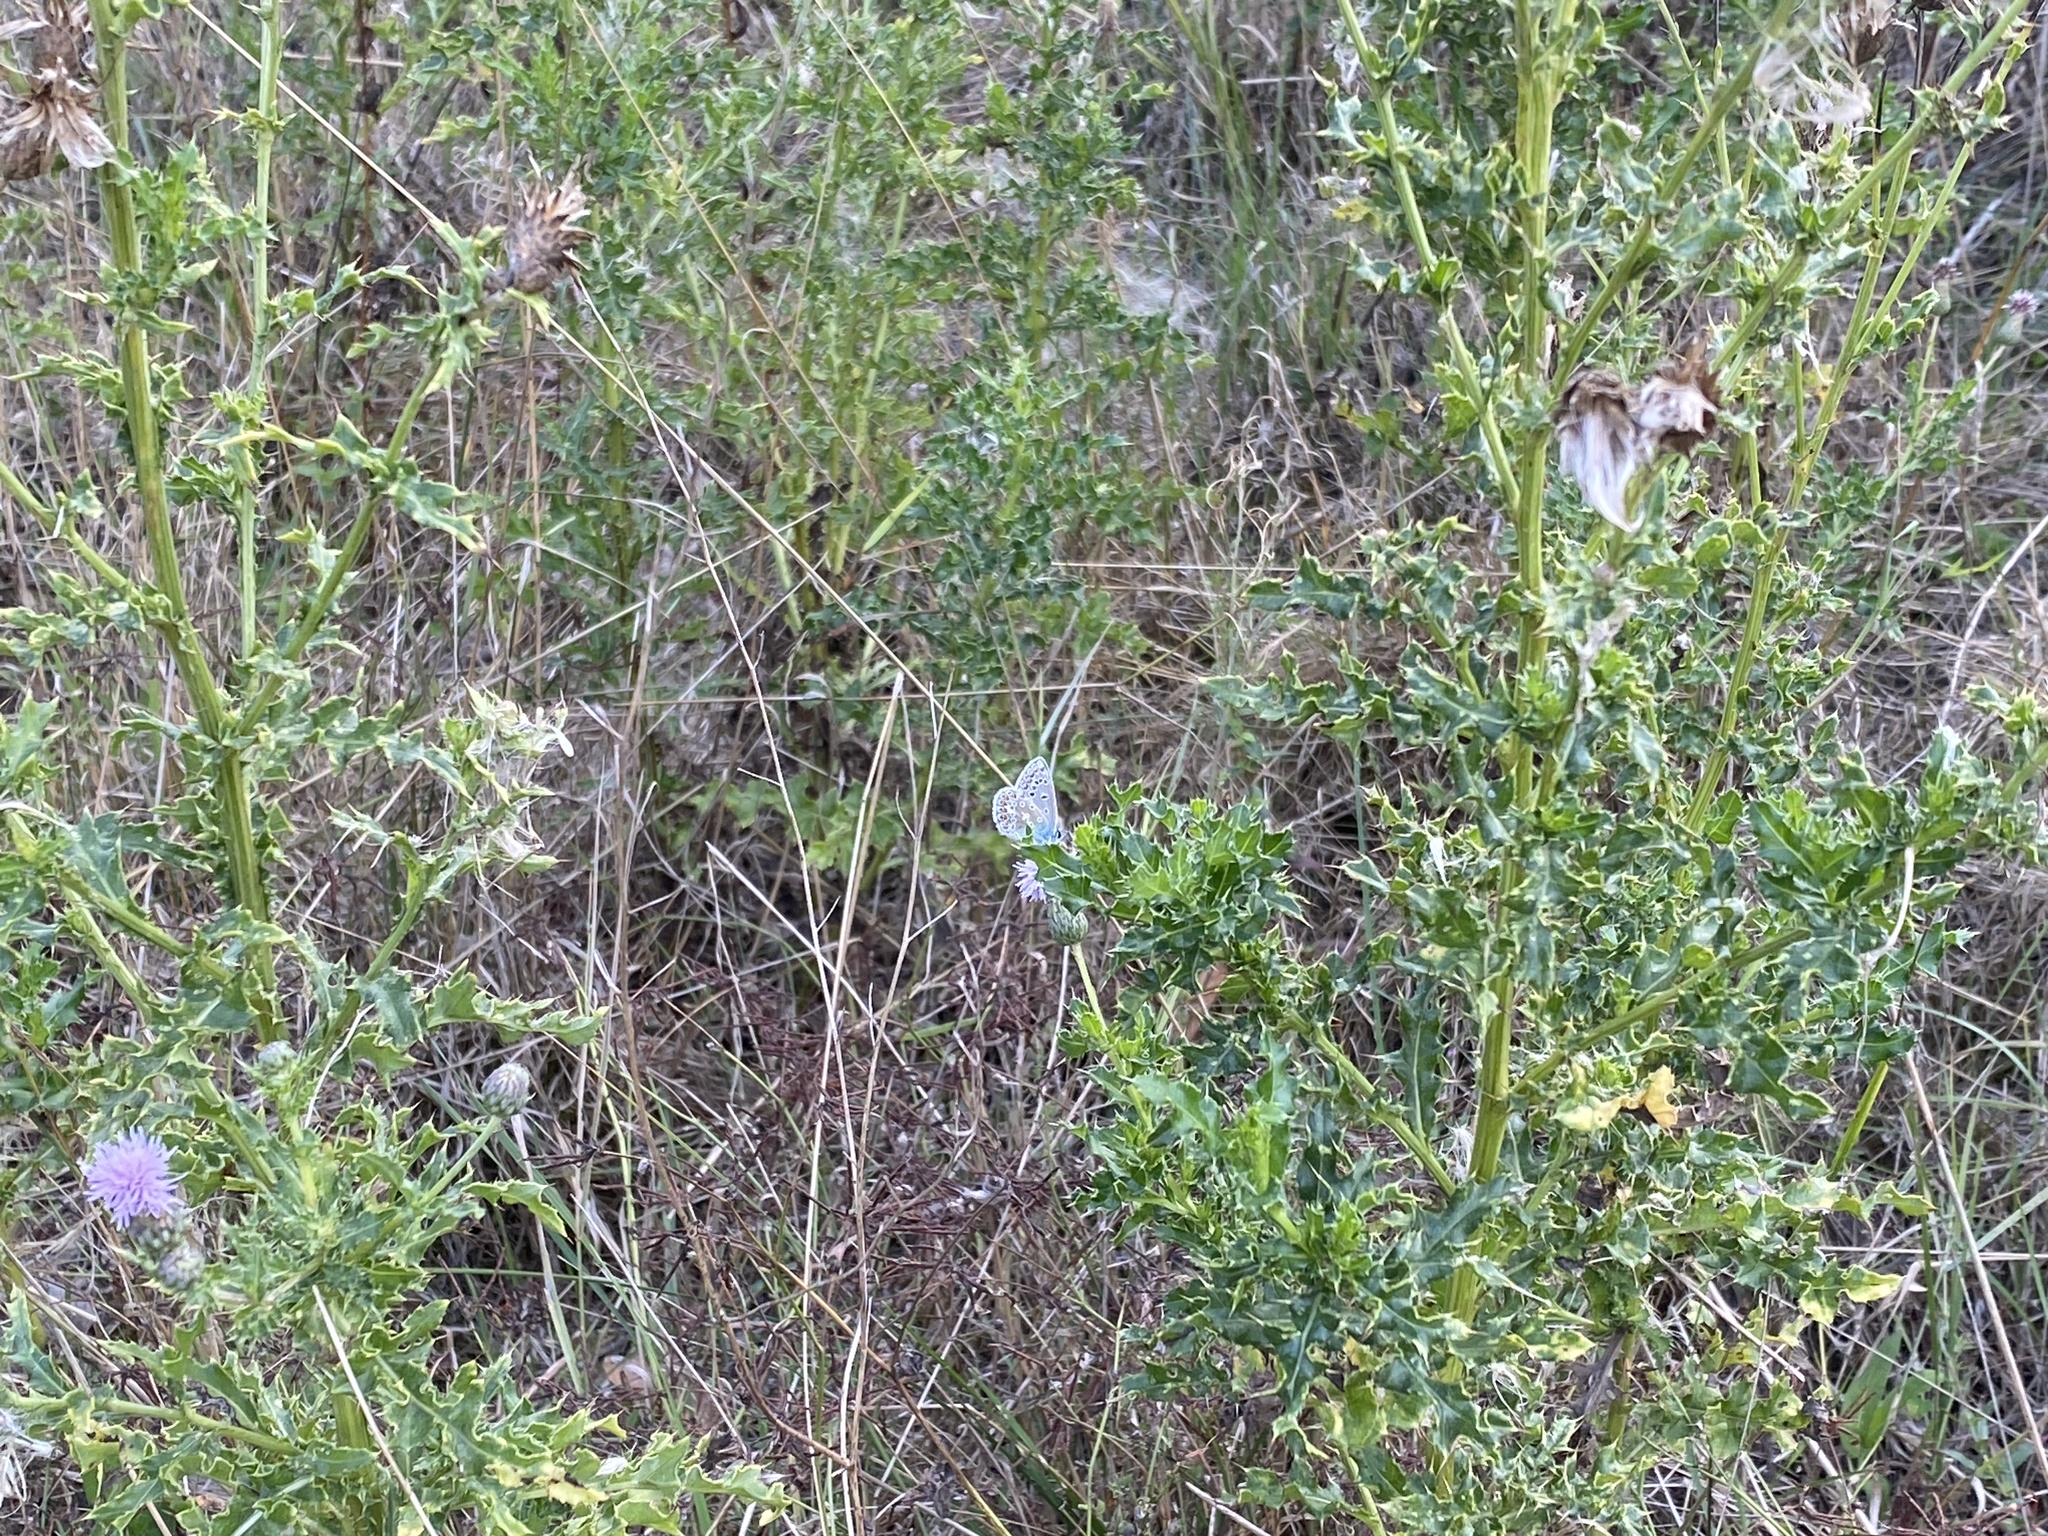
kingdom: Animalia
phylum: Arthropoda
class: Insecta
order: Lepidoptera
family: Lycaenidae
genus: Polyommatus
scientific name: Polyommatus icarus
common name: Common blue
